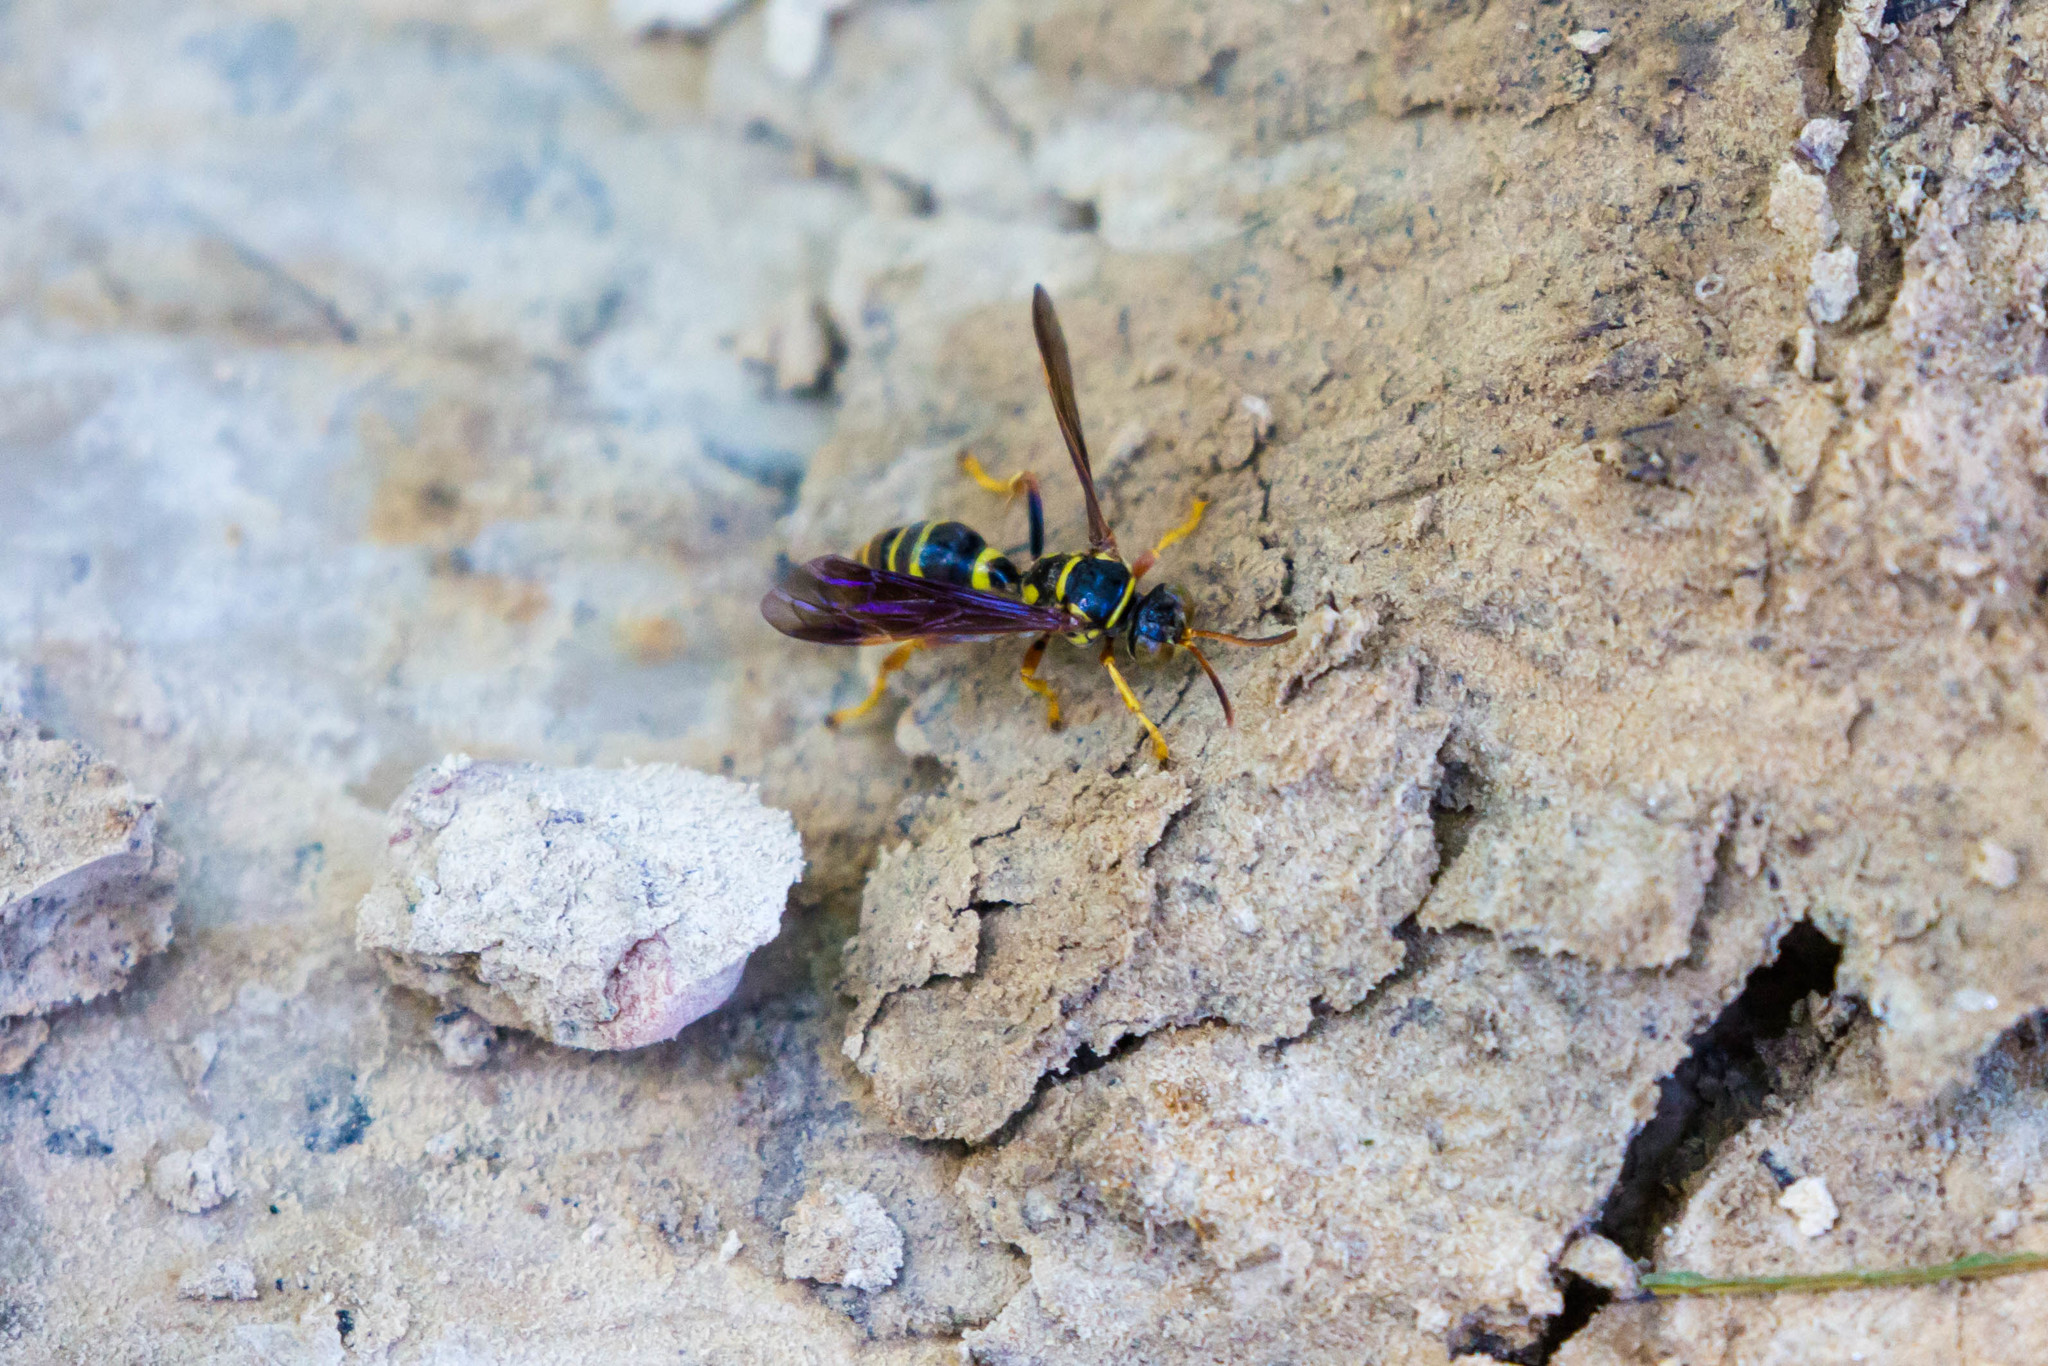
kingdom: Animalia
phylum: Arthropoda
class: Insecta
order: Hymenoptera
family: Crabronidae
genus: Psammaletes
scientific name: Psammaletes mexicanus
